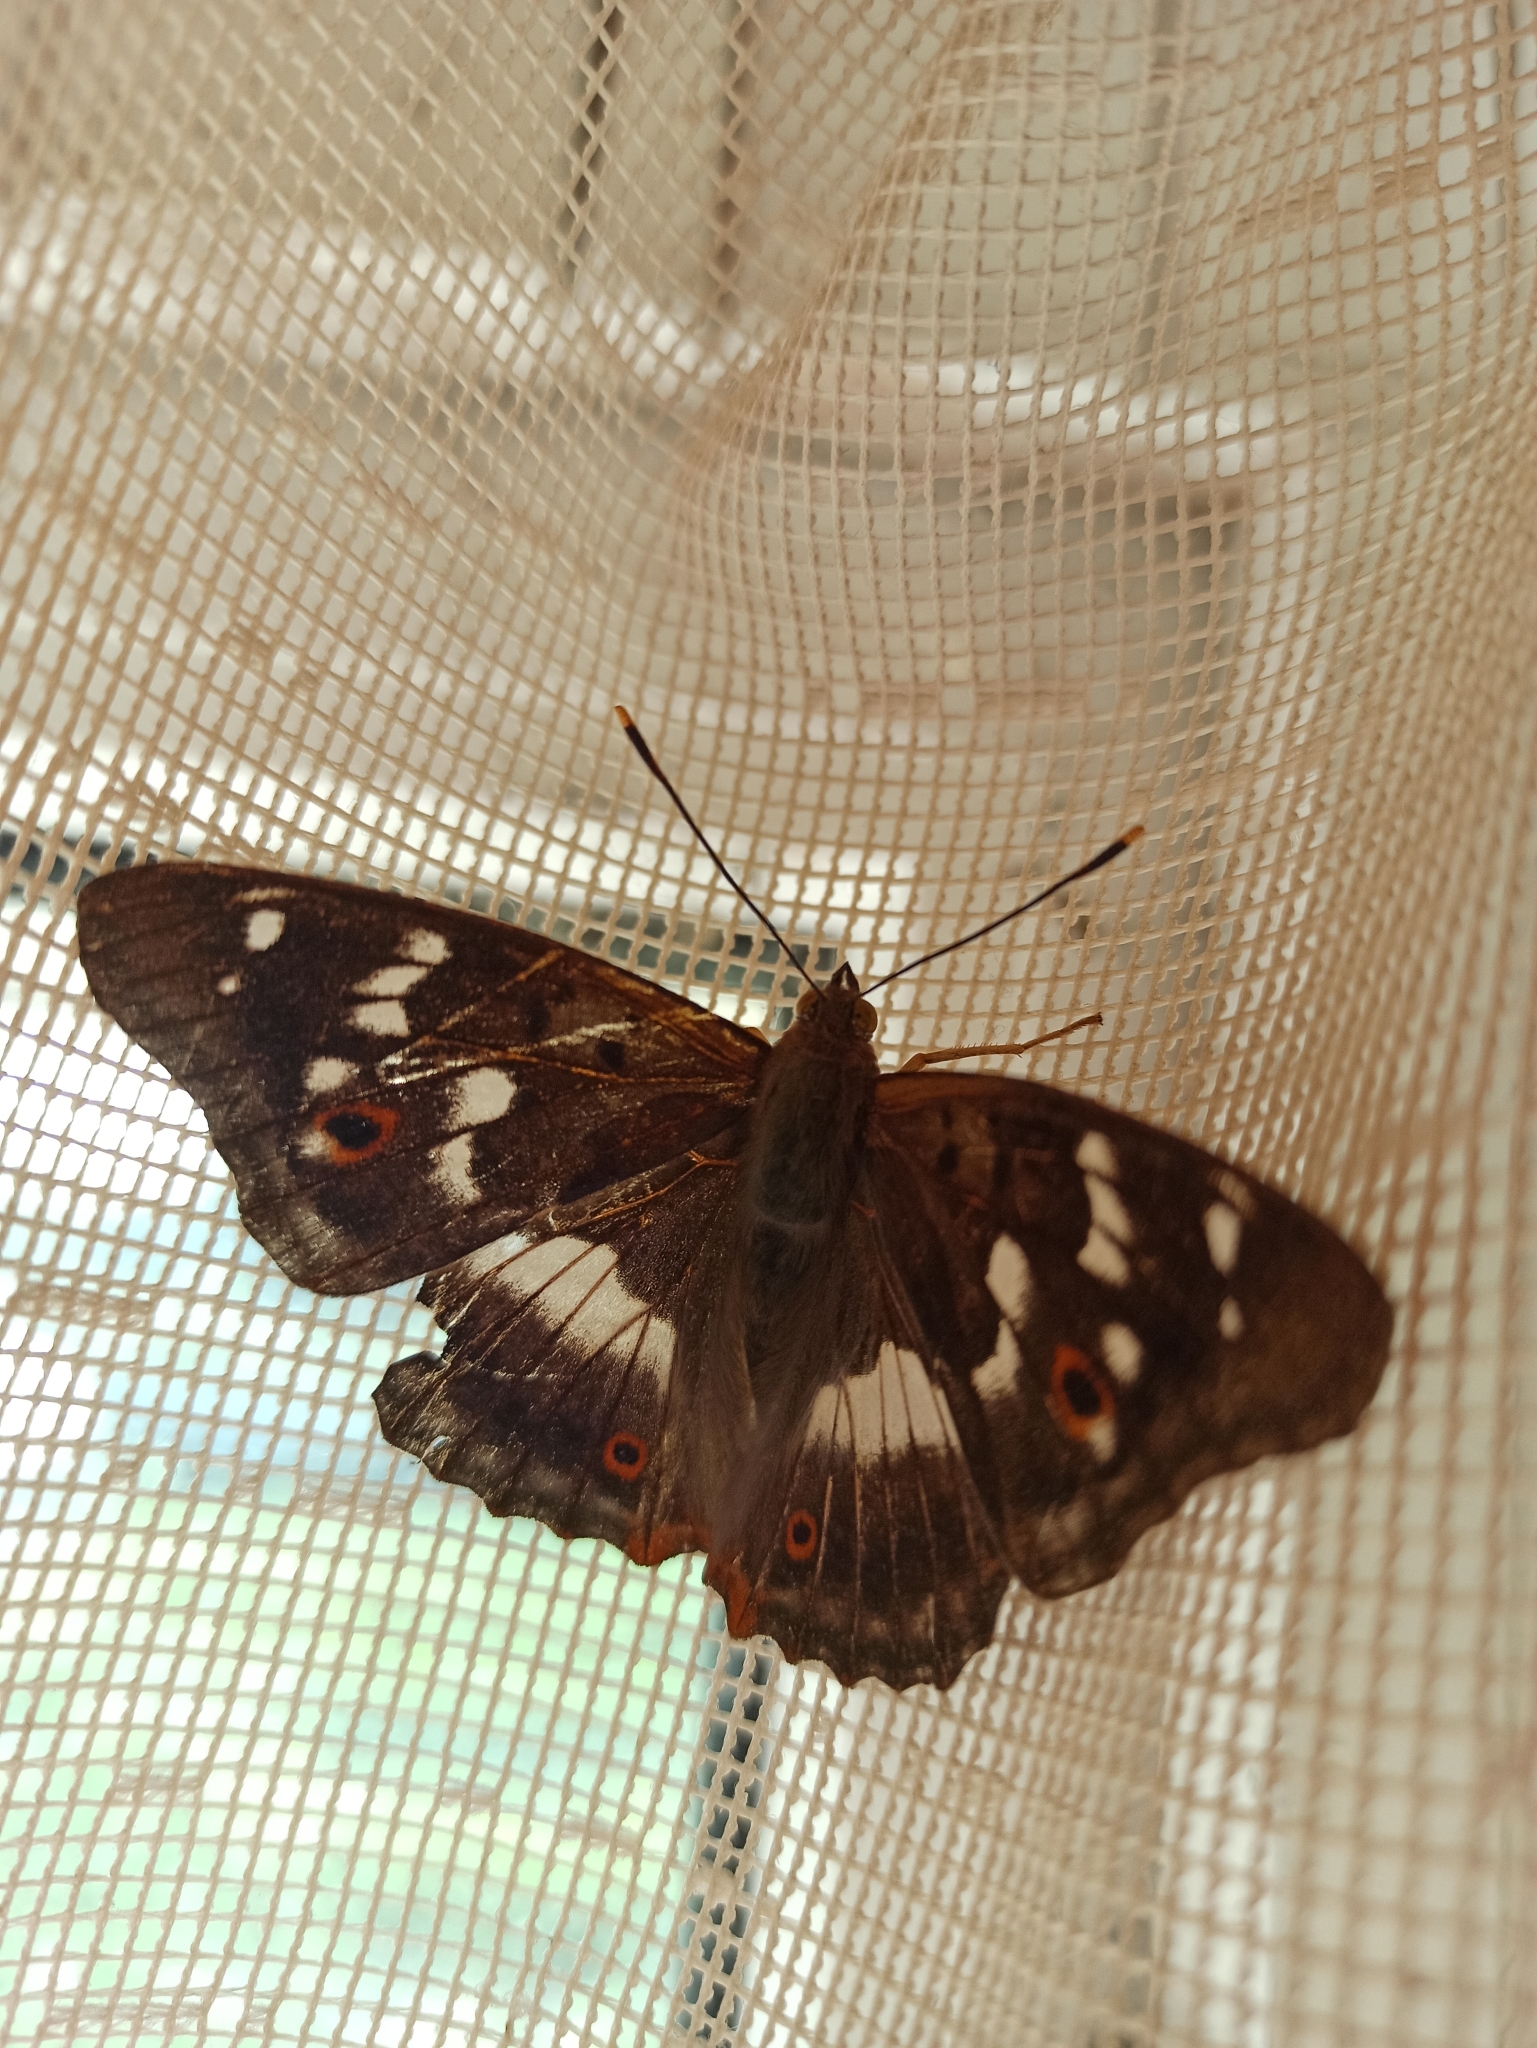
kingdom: Animalia
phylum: Arthropoda
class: Insecta
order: Lepidoptera
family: Nymphalidae
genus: Apatura
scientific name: Apatura ilia
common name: Lesser purple emperor
